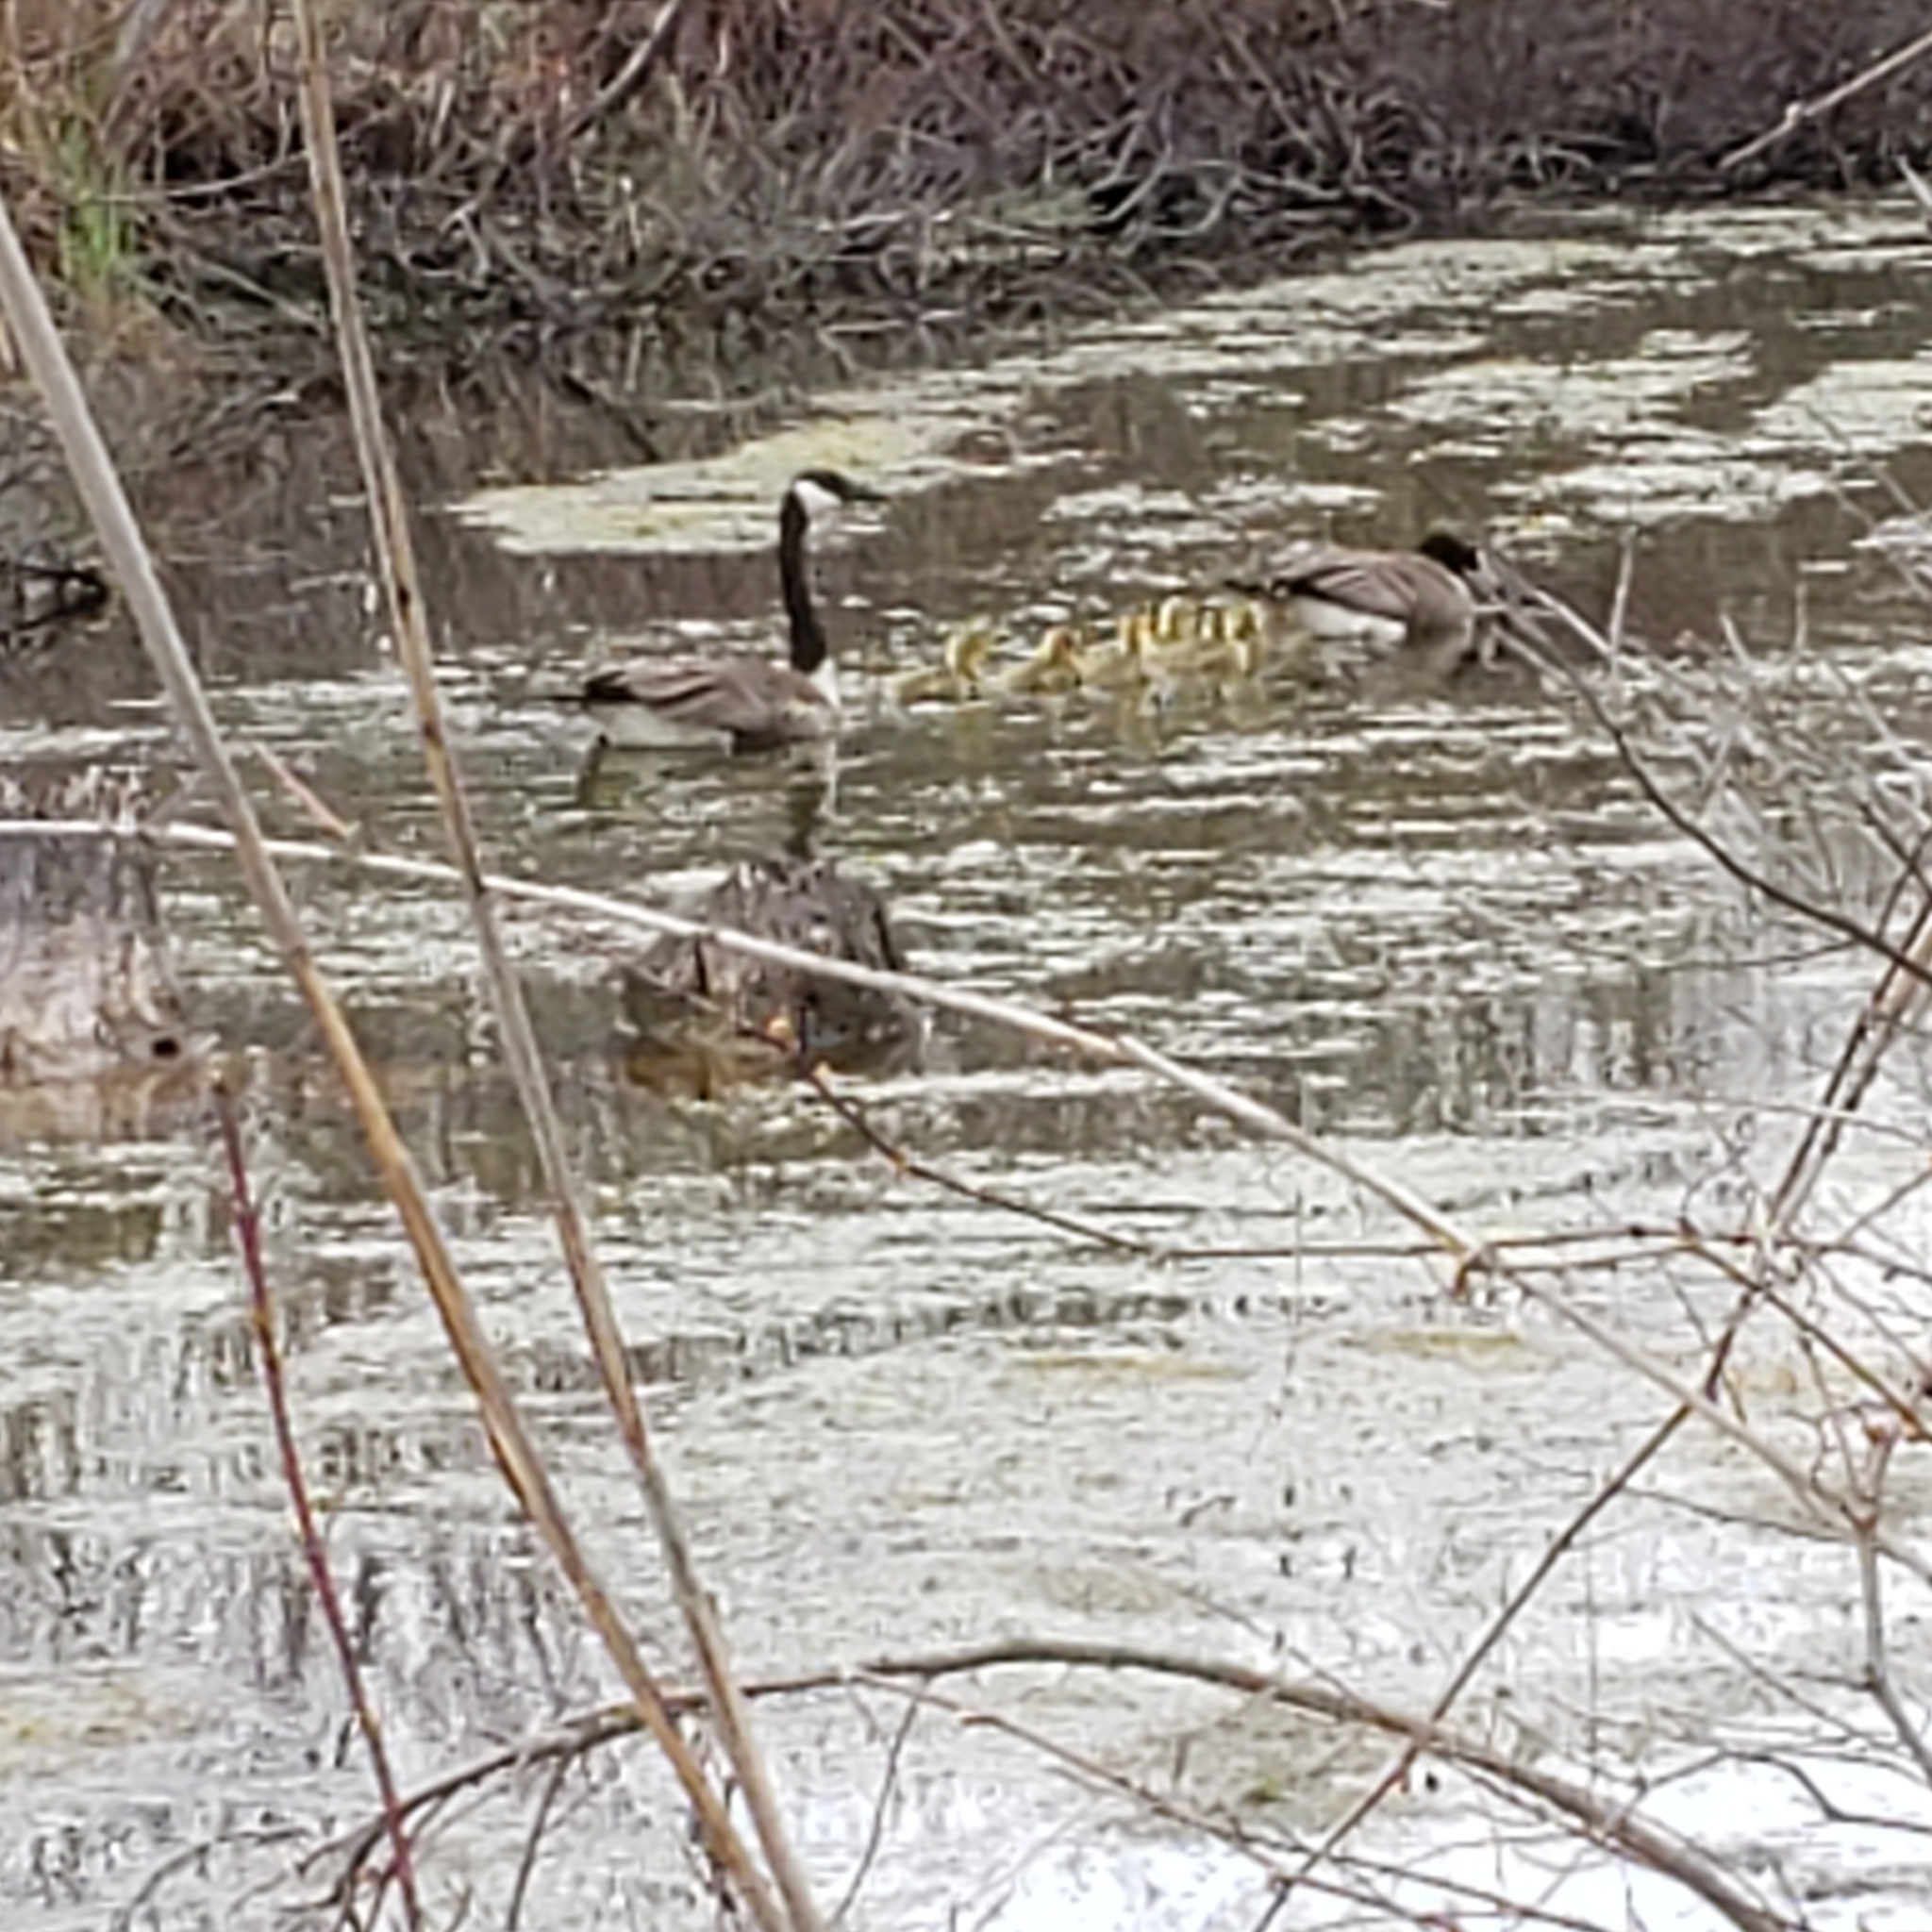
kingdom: Animalia
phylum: Chordata
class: Aves
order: Anseriformes
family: Anatidae
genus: Branta
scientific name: Branta canadensis
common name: Canada goose
